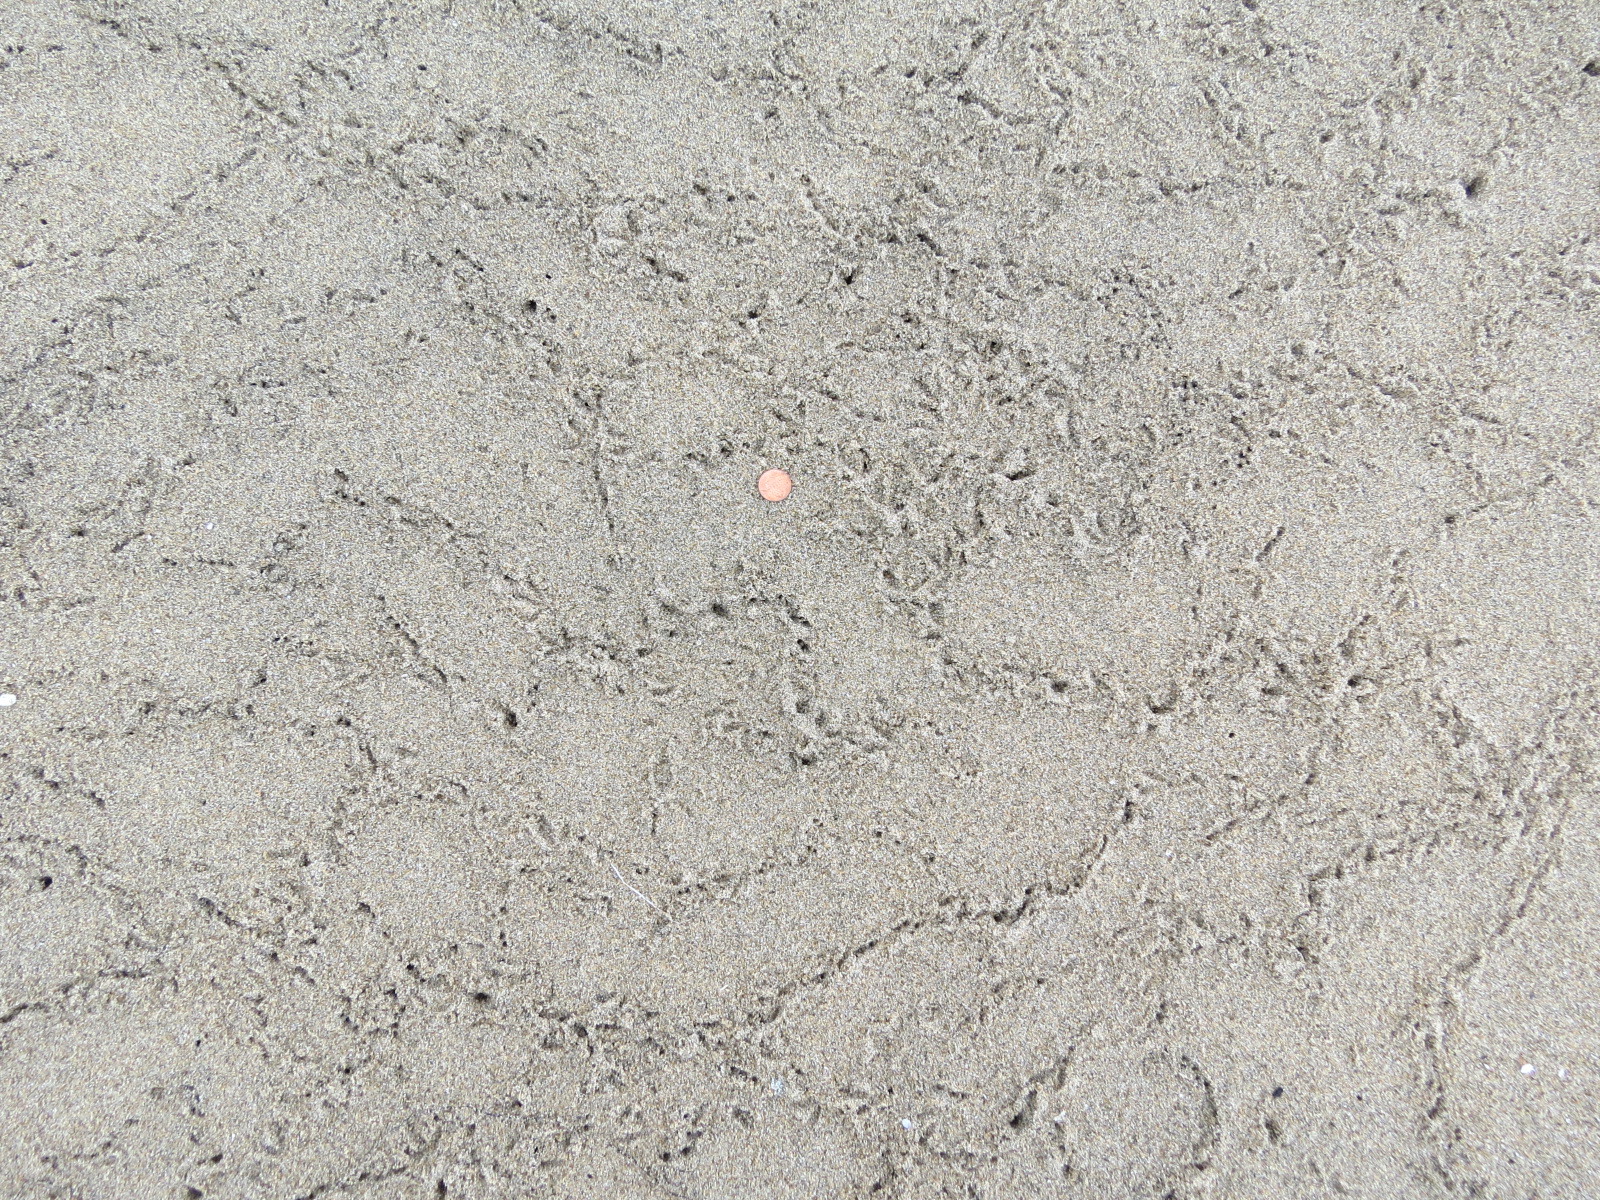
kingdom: Animalia
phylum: Chordata
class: Aves
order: Charadriiformes
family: Scolopacidae
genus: Calidris
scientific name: Calidris alba
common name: Sanderling
